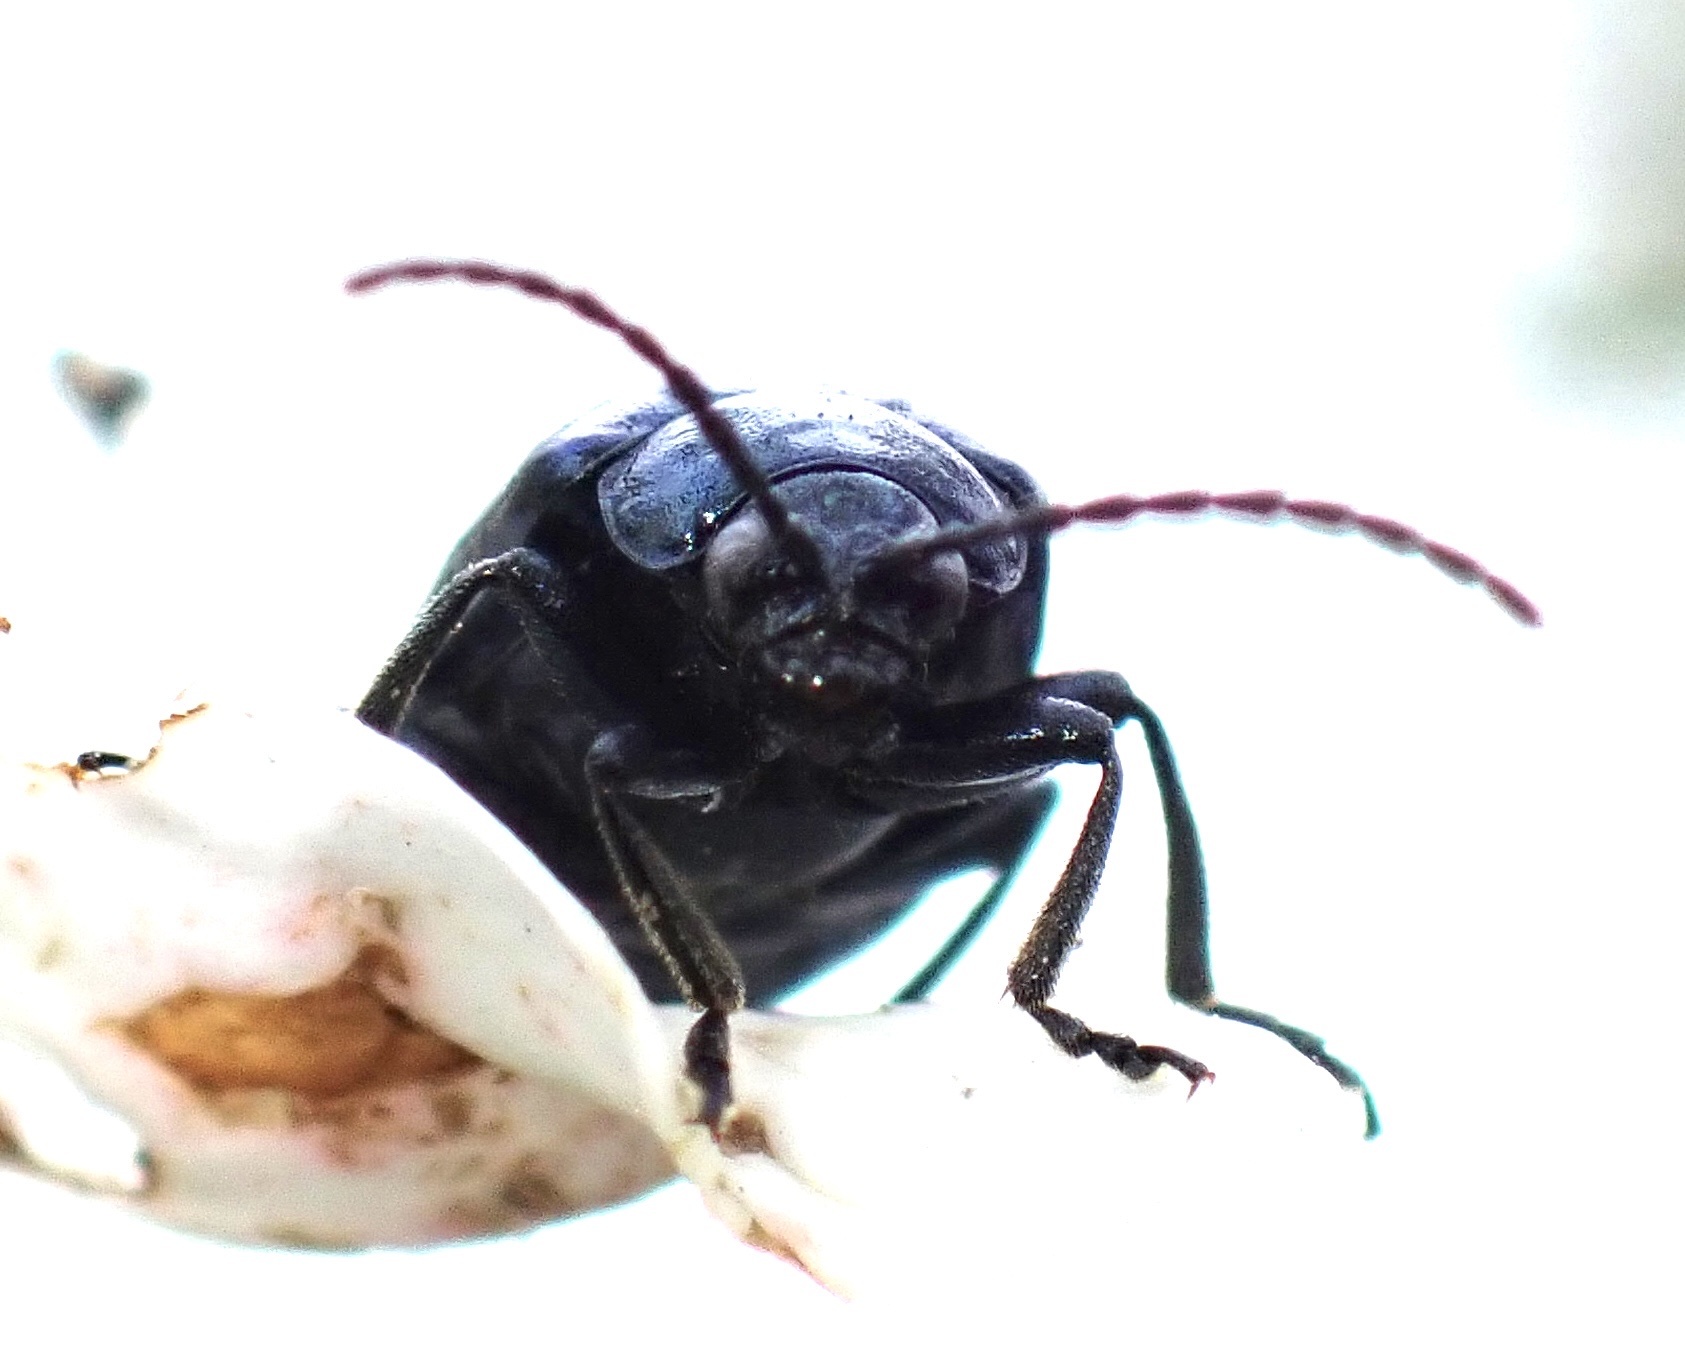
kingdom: Animalia
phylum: Arthropoda
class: Insecta
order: Coleoptera
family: Chrysomelidae
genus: Agelastica
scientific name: Agelastica alni
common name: Alder leaf beetle
